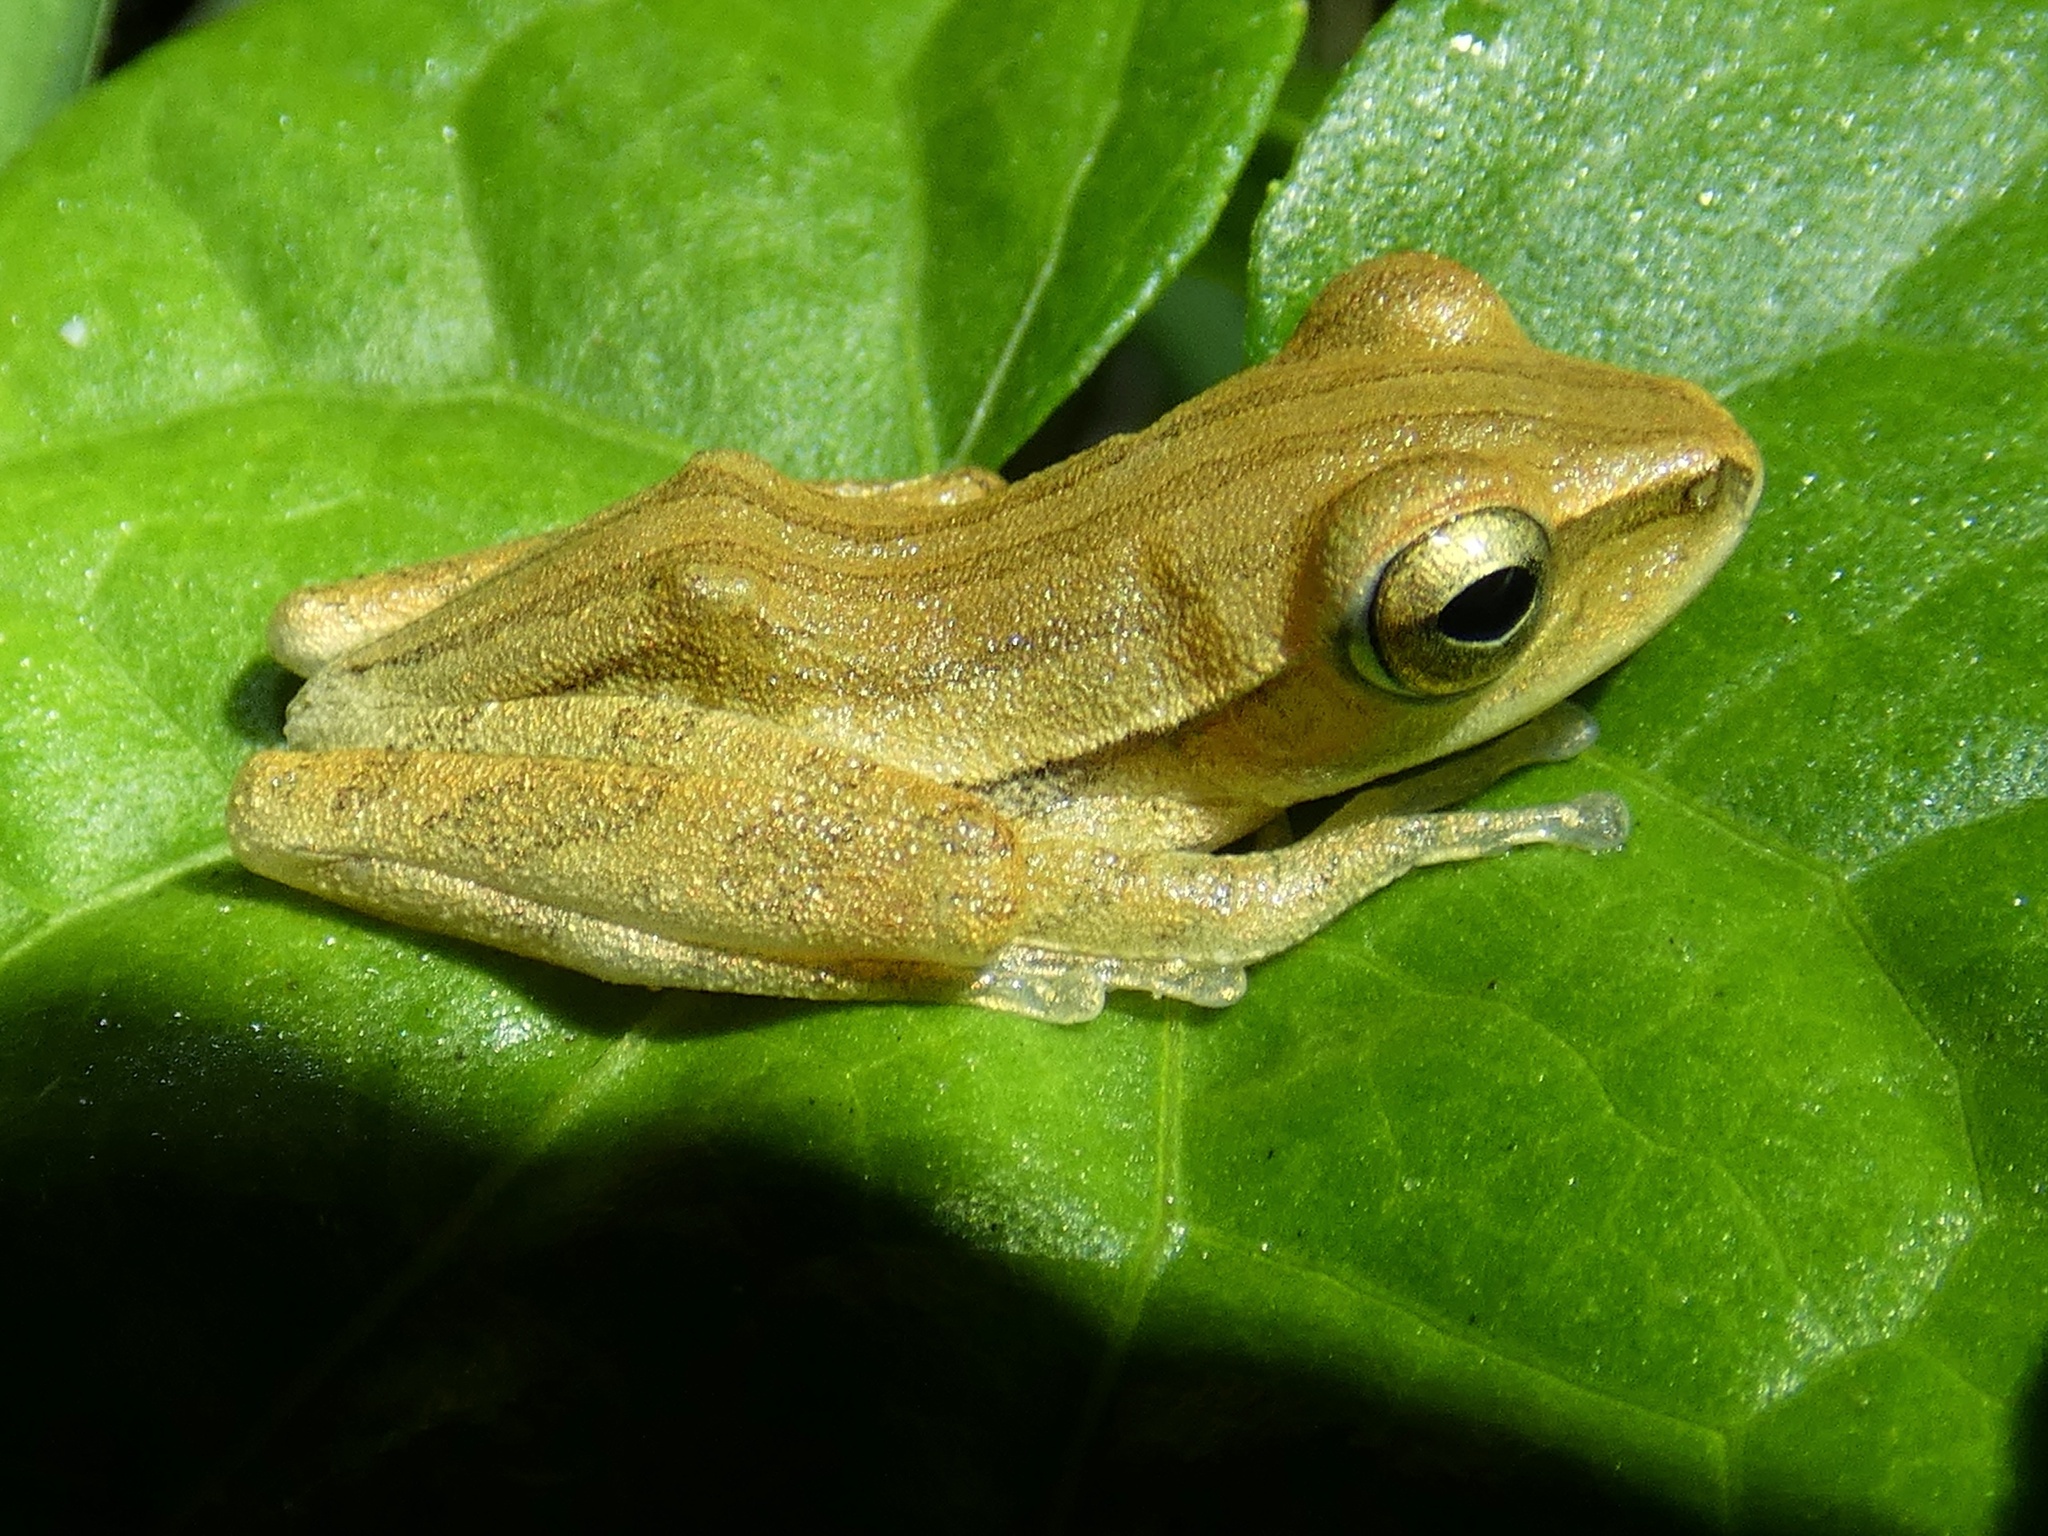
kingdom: Animalia
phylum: Chordata
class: Amphibia
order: Anura
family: Rhacophoridae
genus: Polypedates
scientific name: Polypedates leucomystax
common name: Common tree frog/four-lined tree frog
